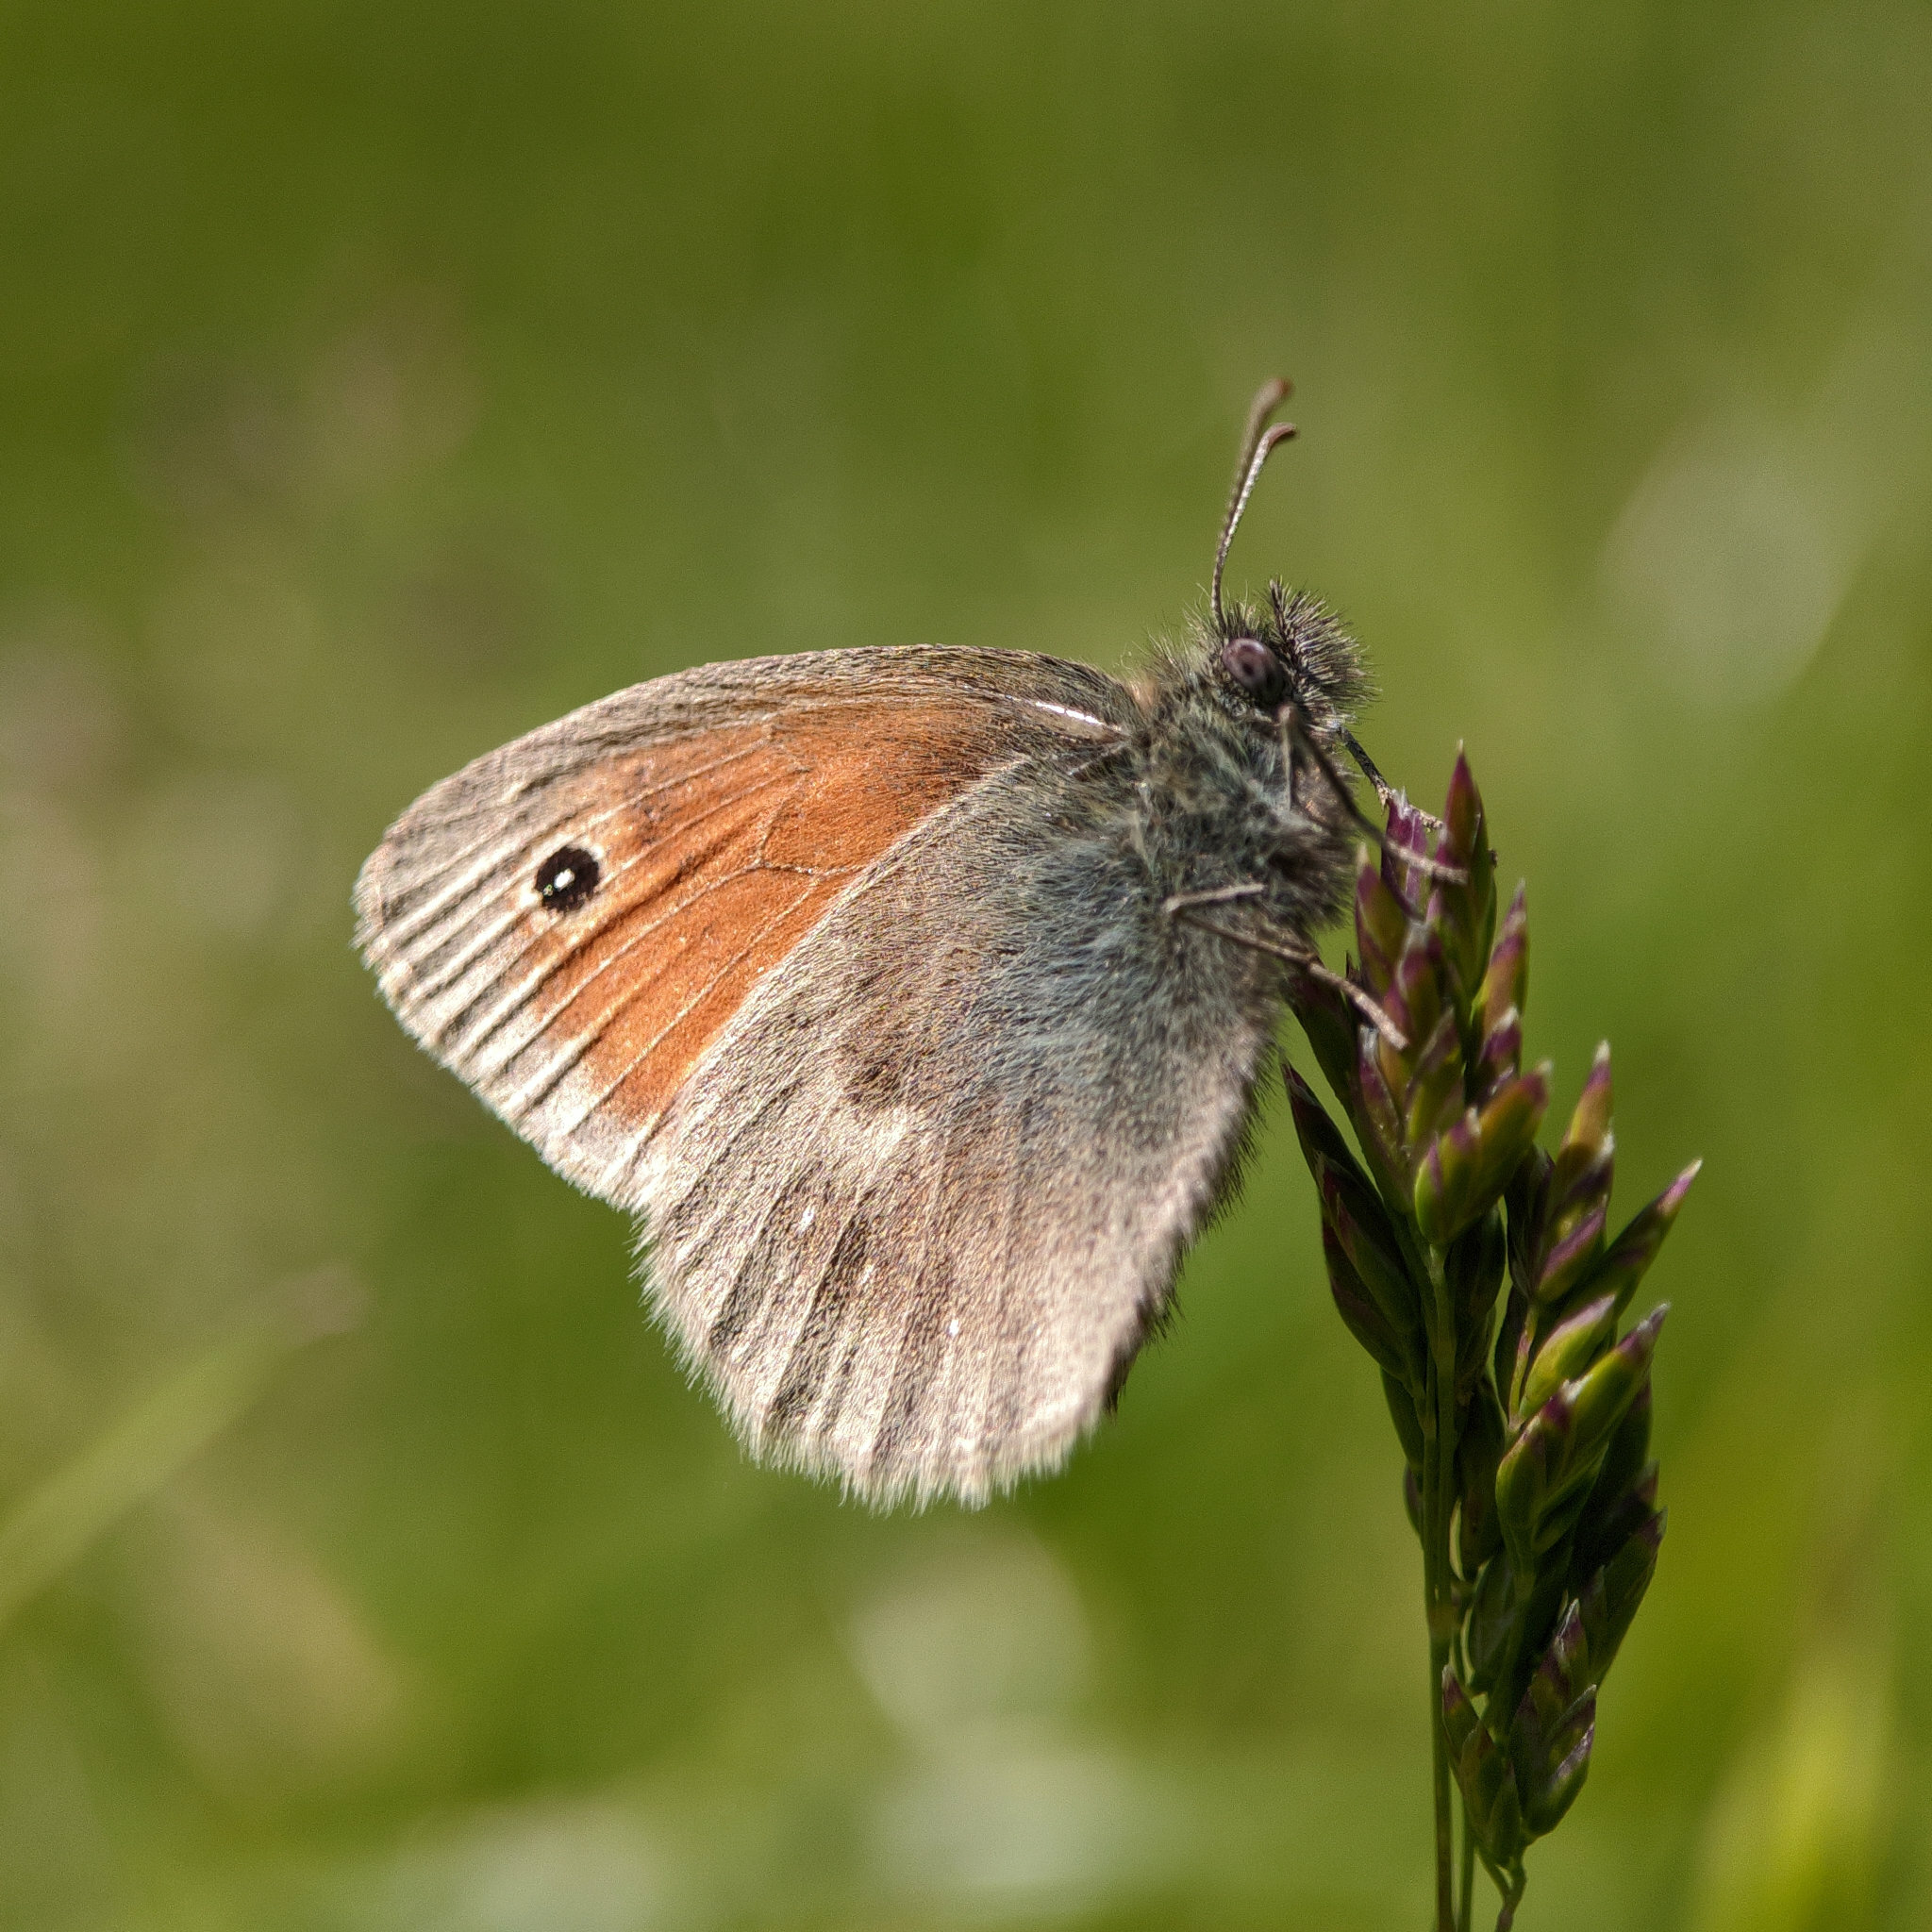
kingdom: Animalia
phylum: Arthropoda
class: Insecta
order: Lepidoptera
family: Nymphalidae
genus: Coenonympha
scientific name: Coenonympha pamphilus
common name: Small heath
